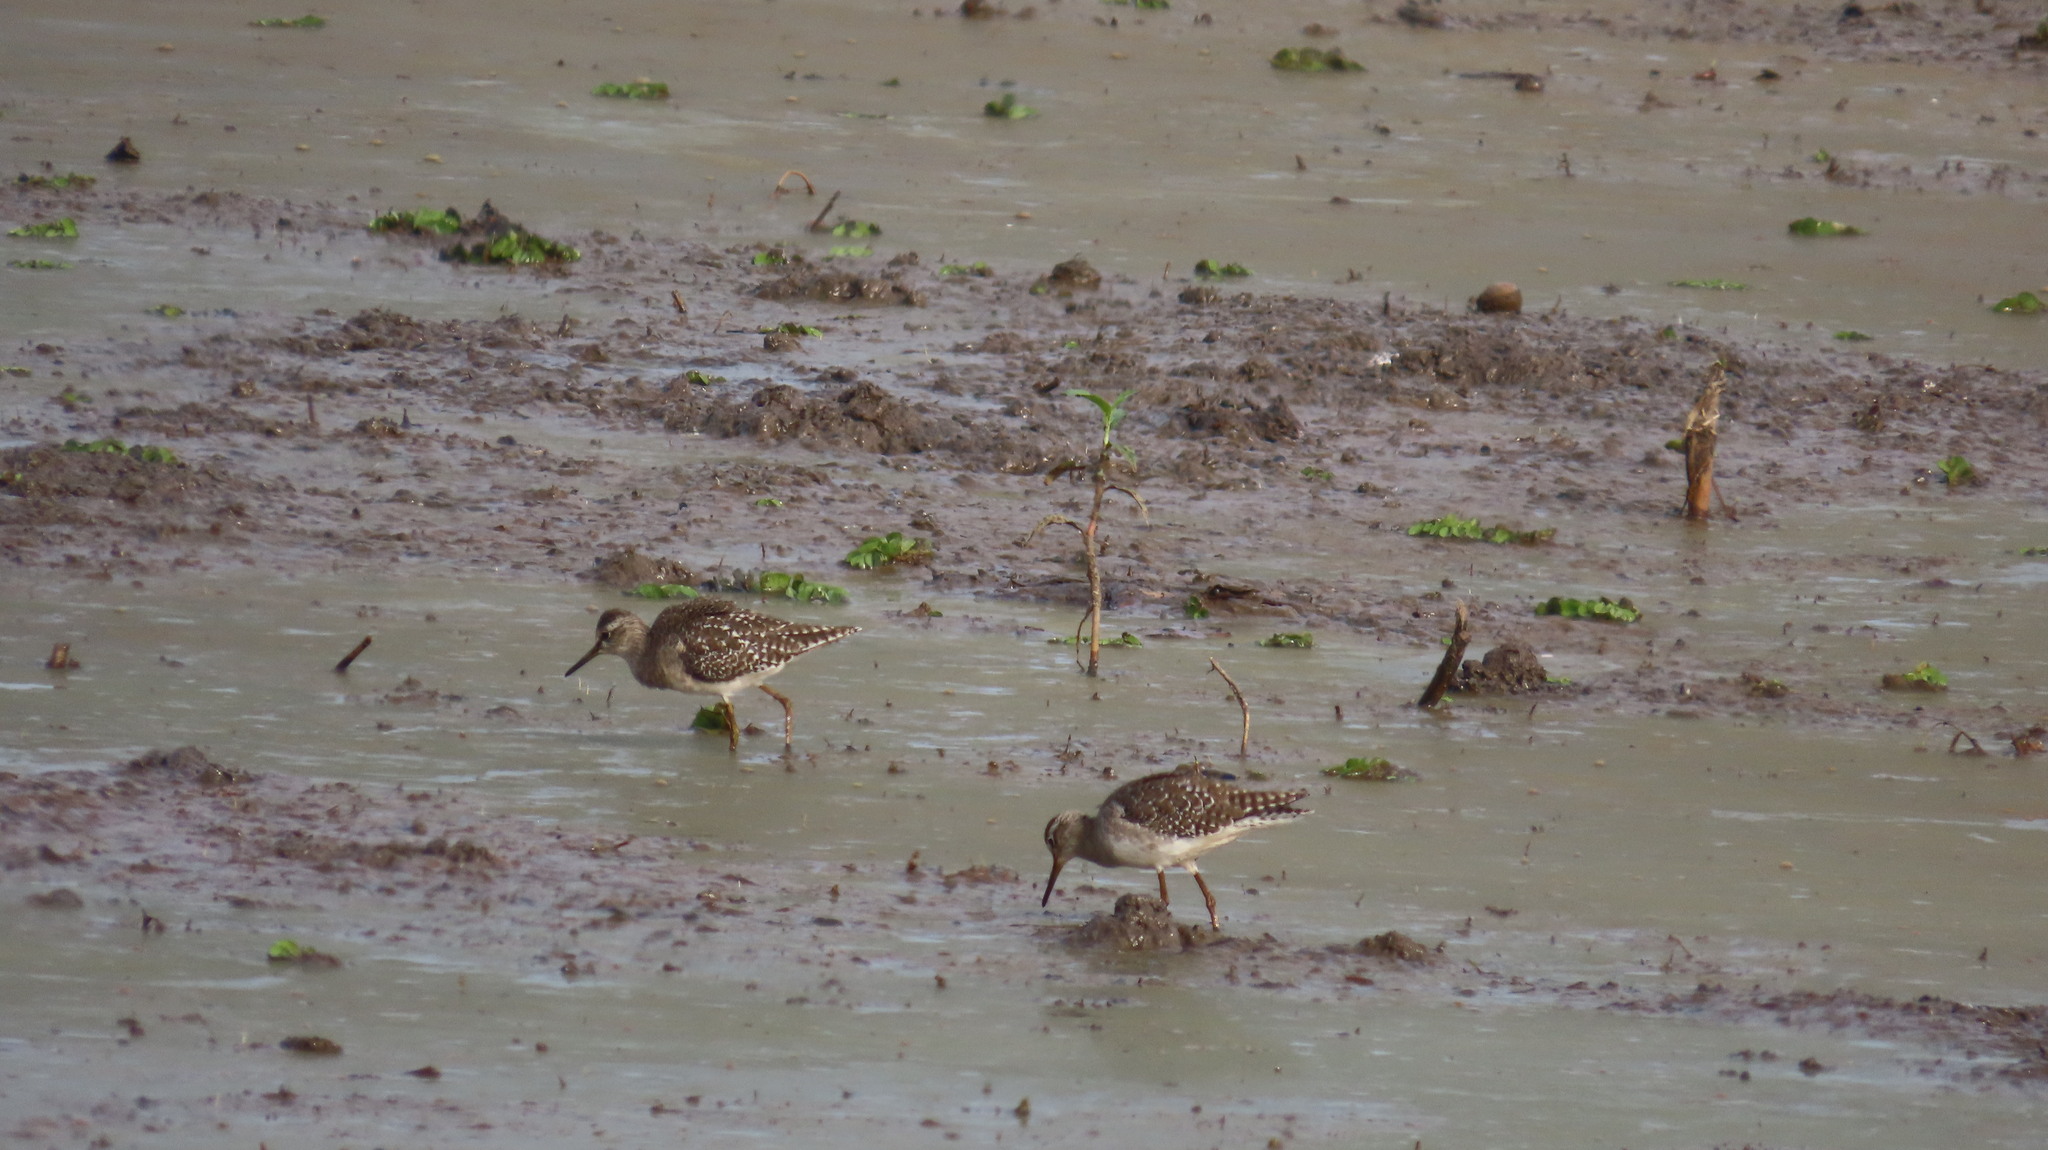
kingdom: Animalia
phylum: Chordata
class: Aves
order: Charadriiformes
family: Scolopacidae
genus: Tringa
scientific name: Tringa glareola
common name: Wood sandpiper
